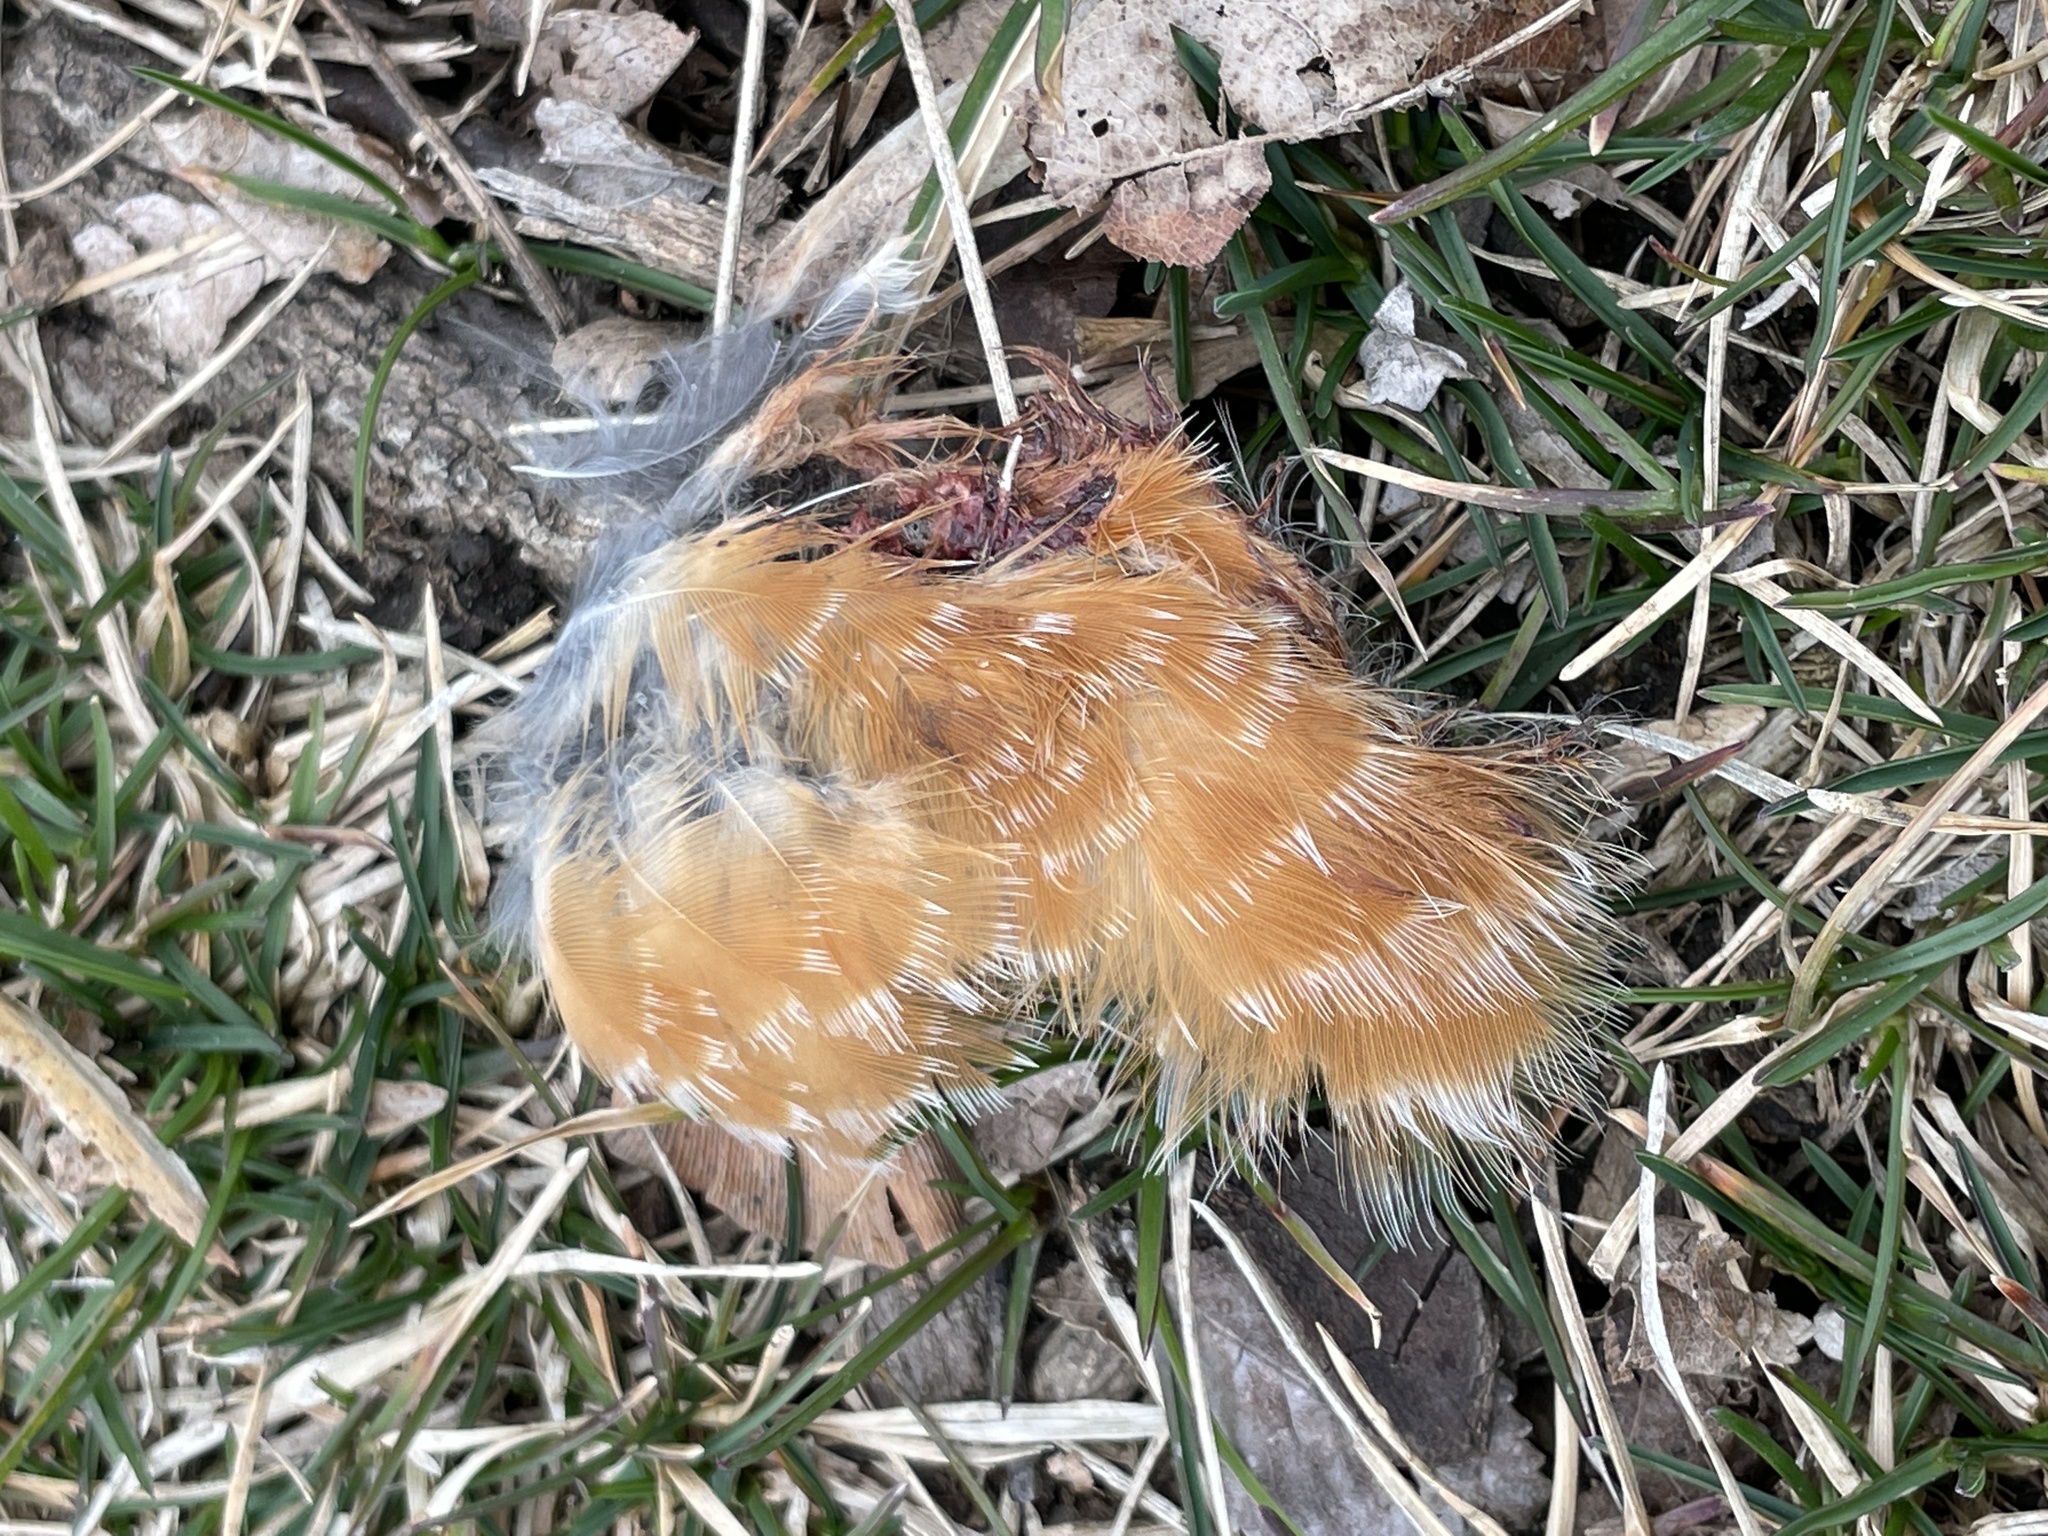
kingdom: Animalia
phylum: Chordata
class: Aves
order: Passeriformes
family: Turdidae
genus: Turdus
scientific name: Turdus migratorius
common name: American robin
